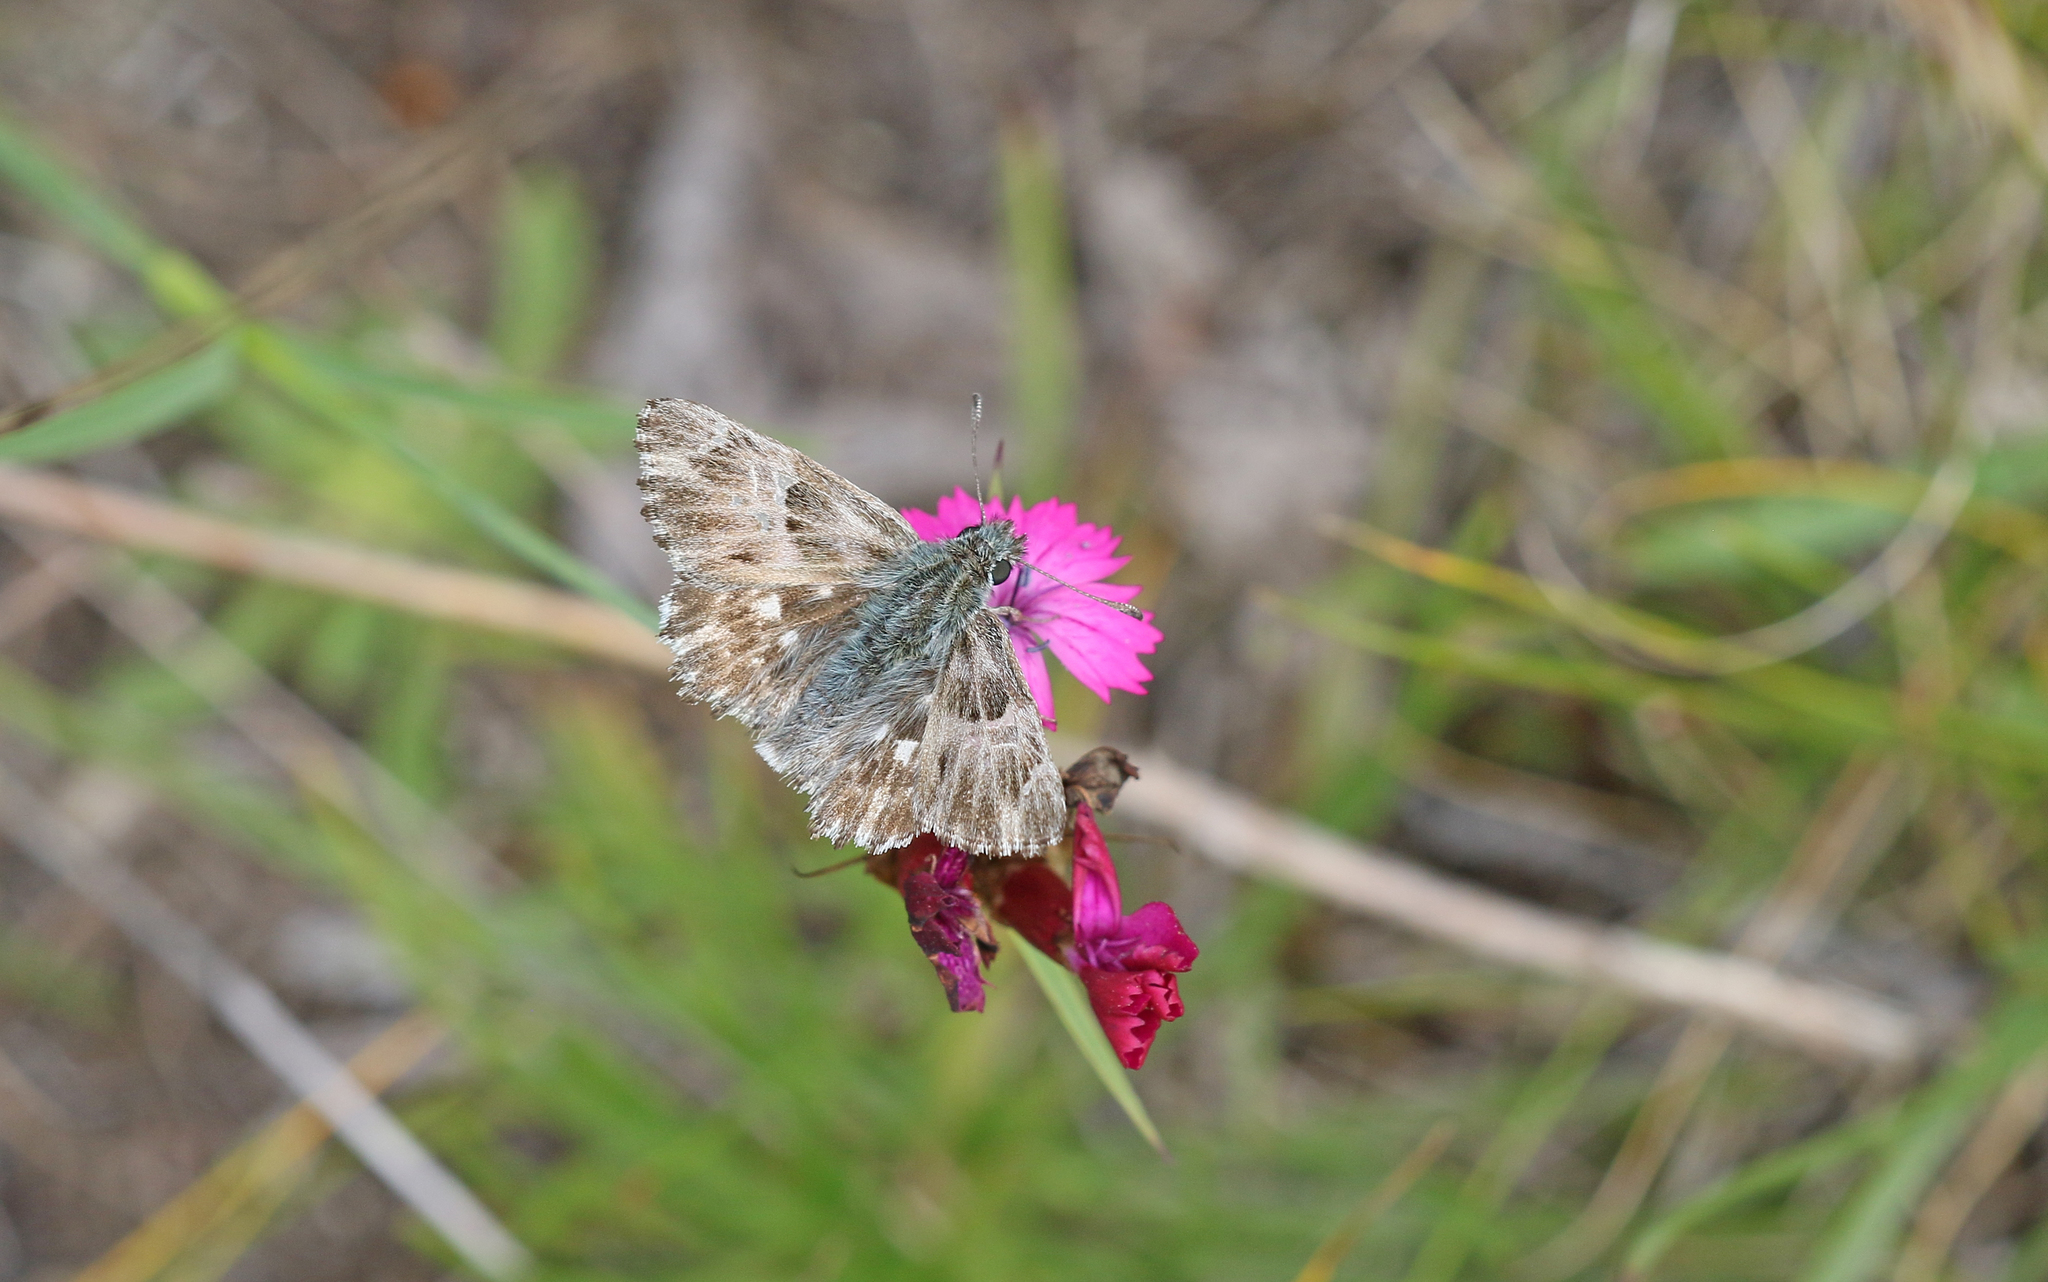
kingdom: Animalia
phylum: Arthropoda
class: Insecta
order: Lepidoptera
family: Hesperiidae
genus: Carcharodus
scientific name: Carcharodus floccifera
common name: Tufted marbled skipper
